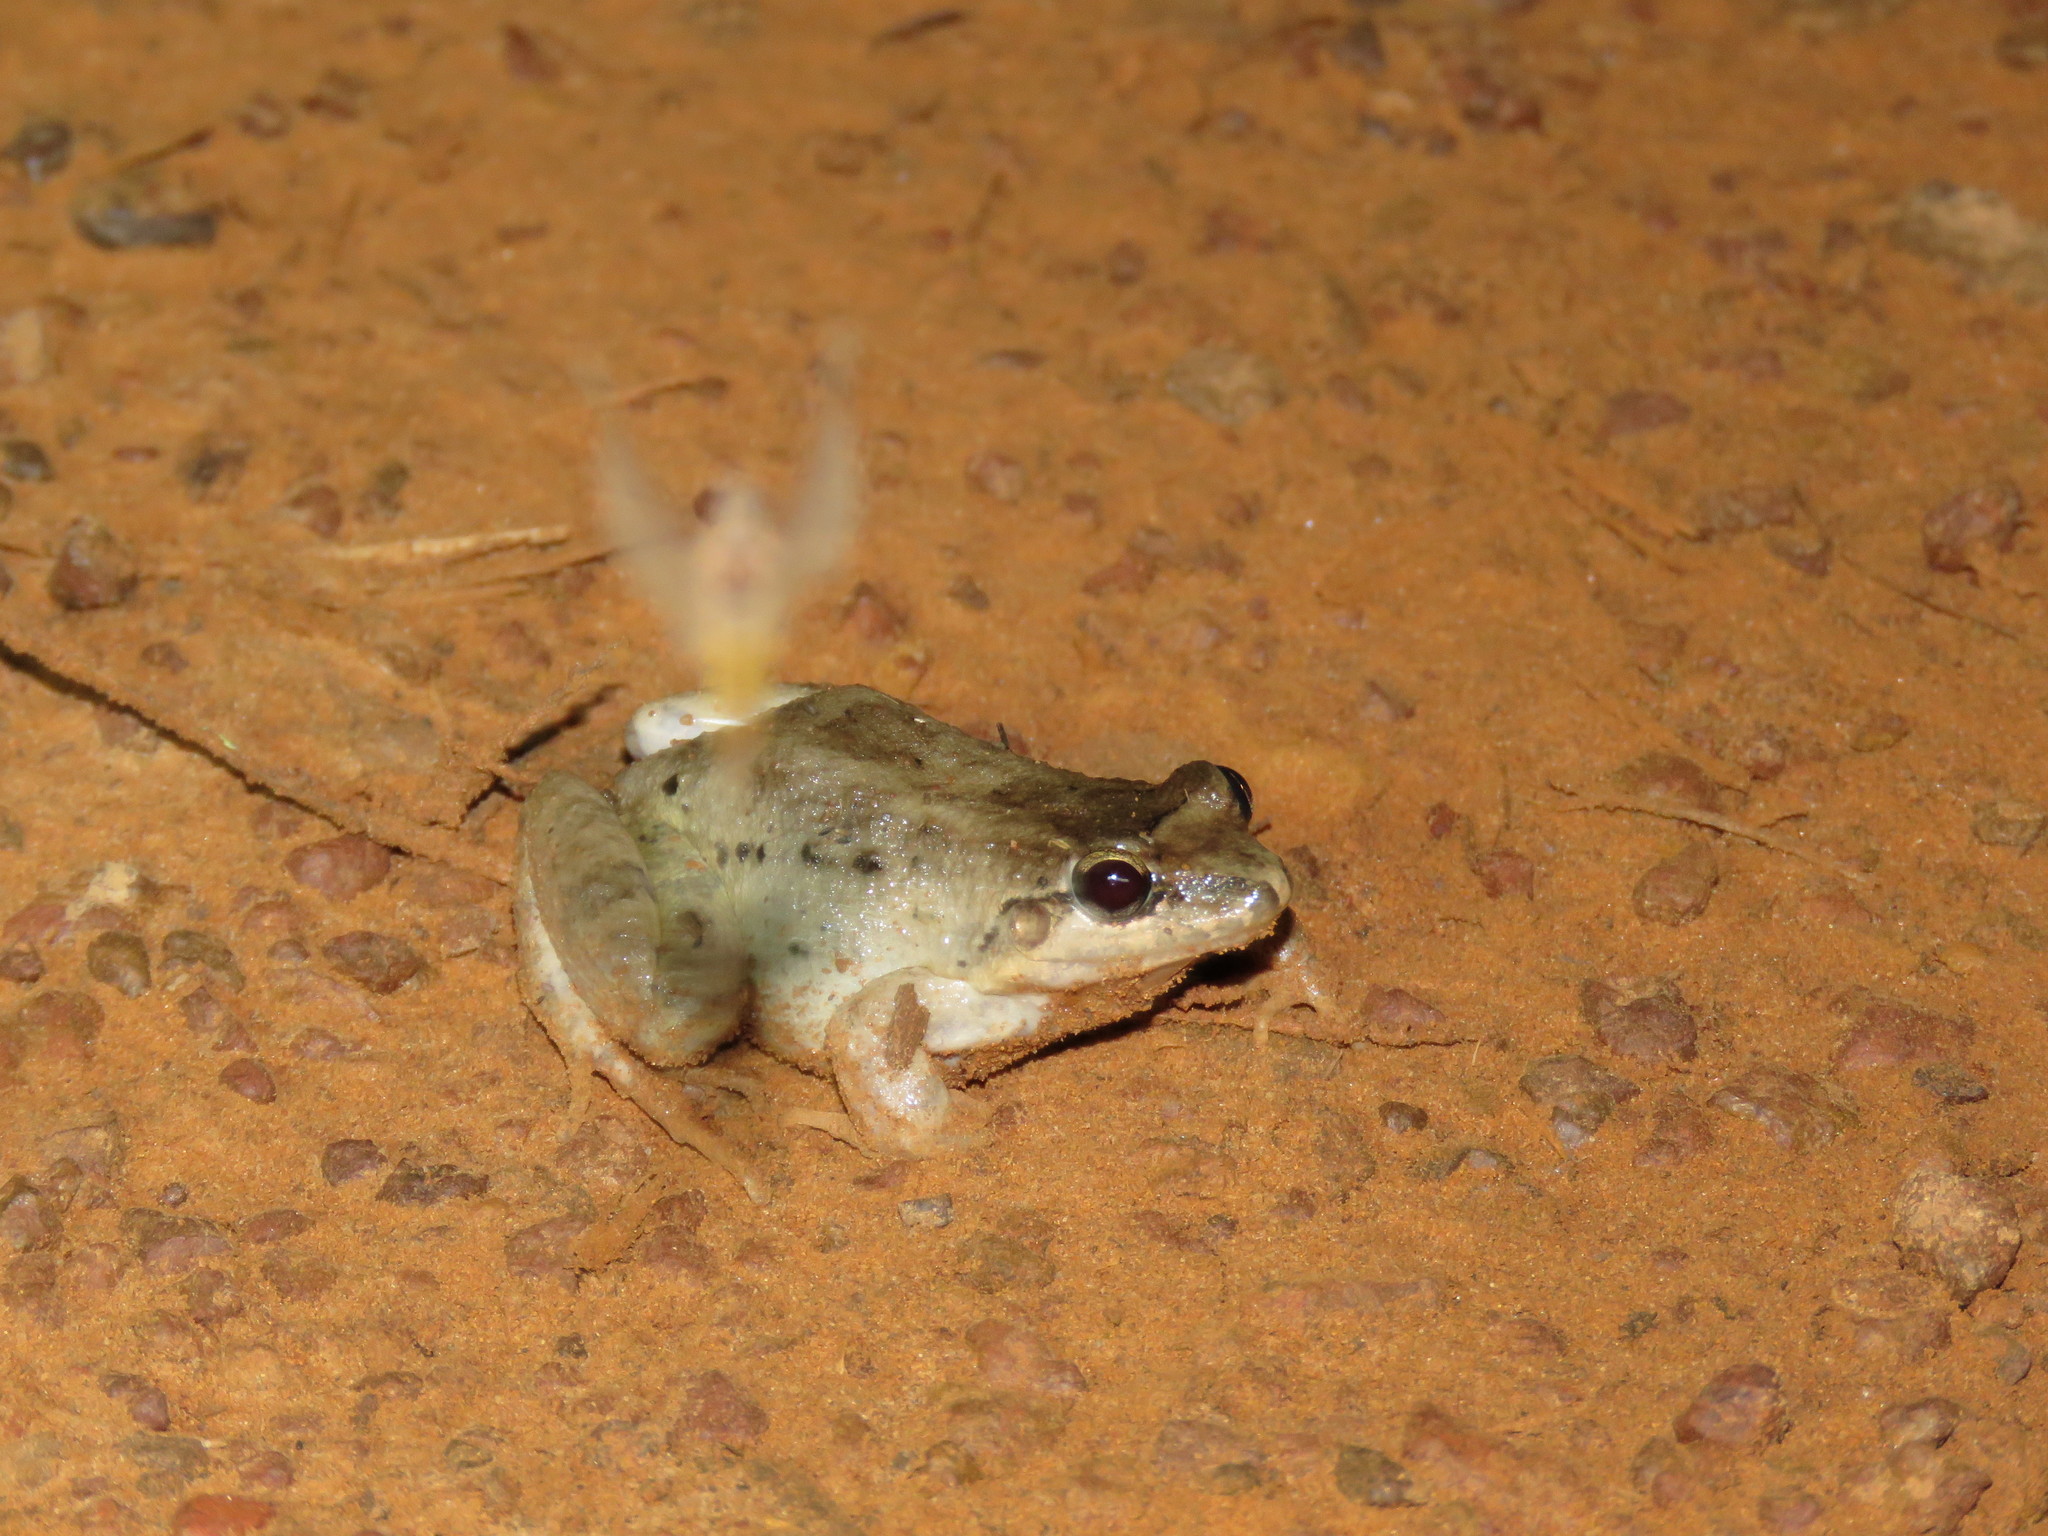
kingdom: Animalia
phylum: Chordata
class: Amphibia
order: Anura
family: Leptodactylidae
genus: Leptodactylus
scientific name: Leptodactylus petersii
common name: Peters' thin-toed frog
